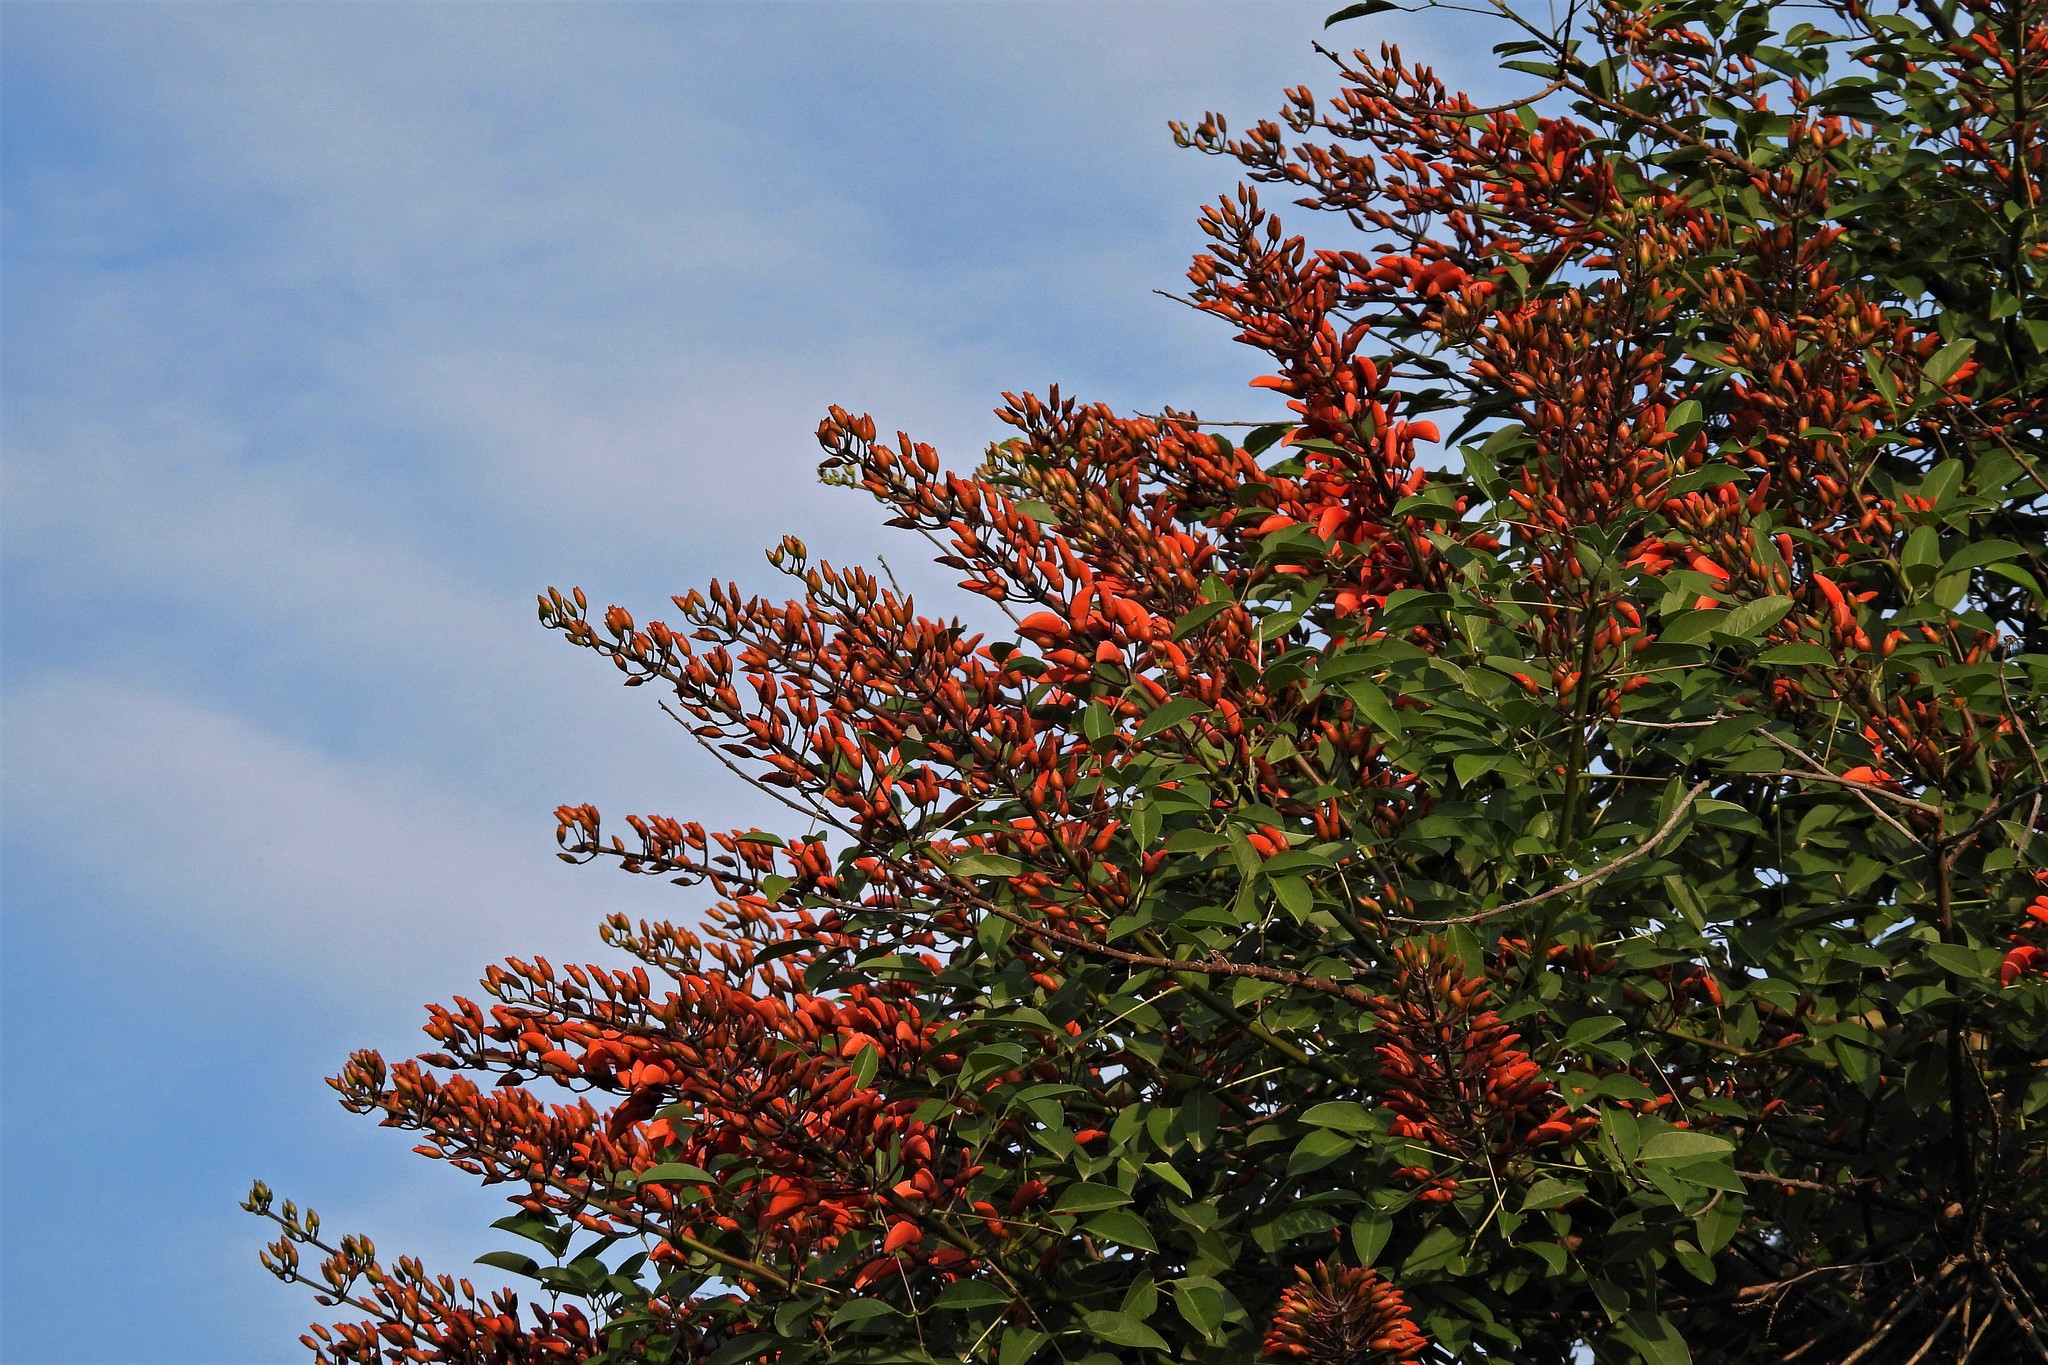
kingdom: Plantae
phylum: Tracheophyta
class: Magnoliopsida
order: Fabales
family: Fabaceae
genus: Erythrina
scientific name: Erythrina crista-galli
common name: Cockspur coral tree
